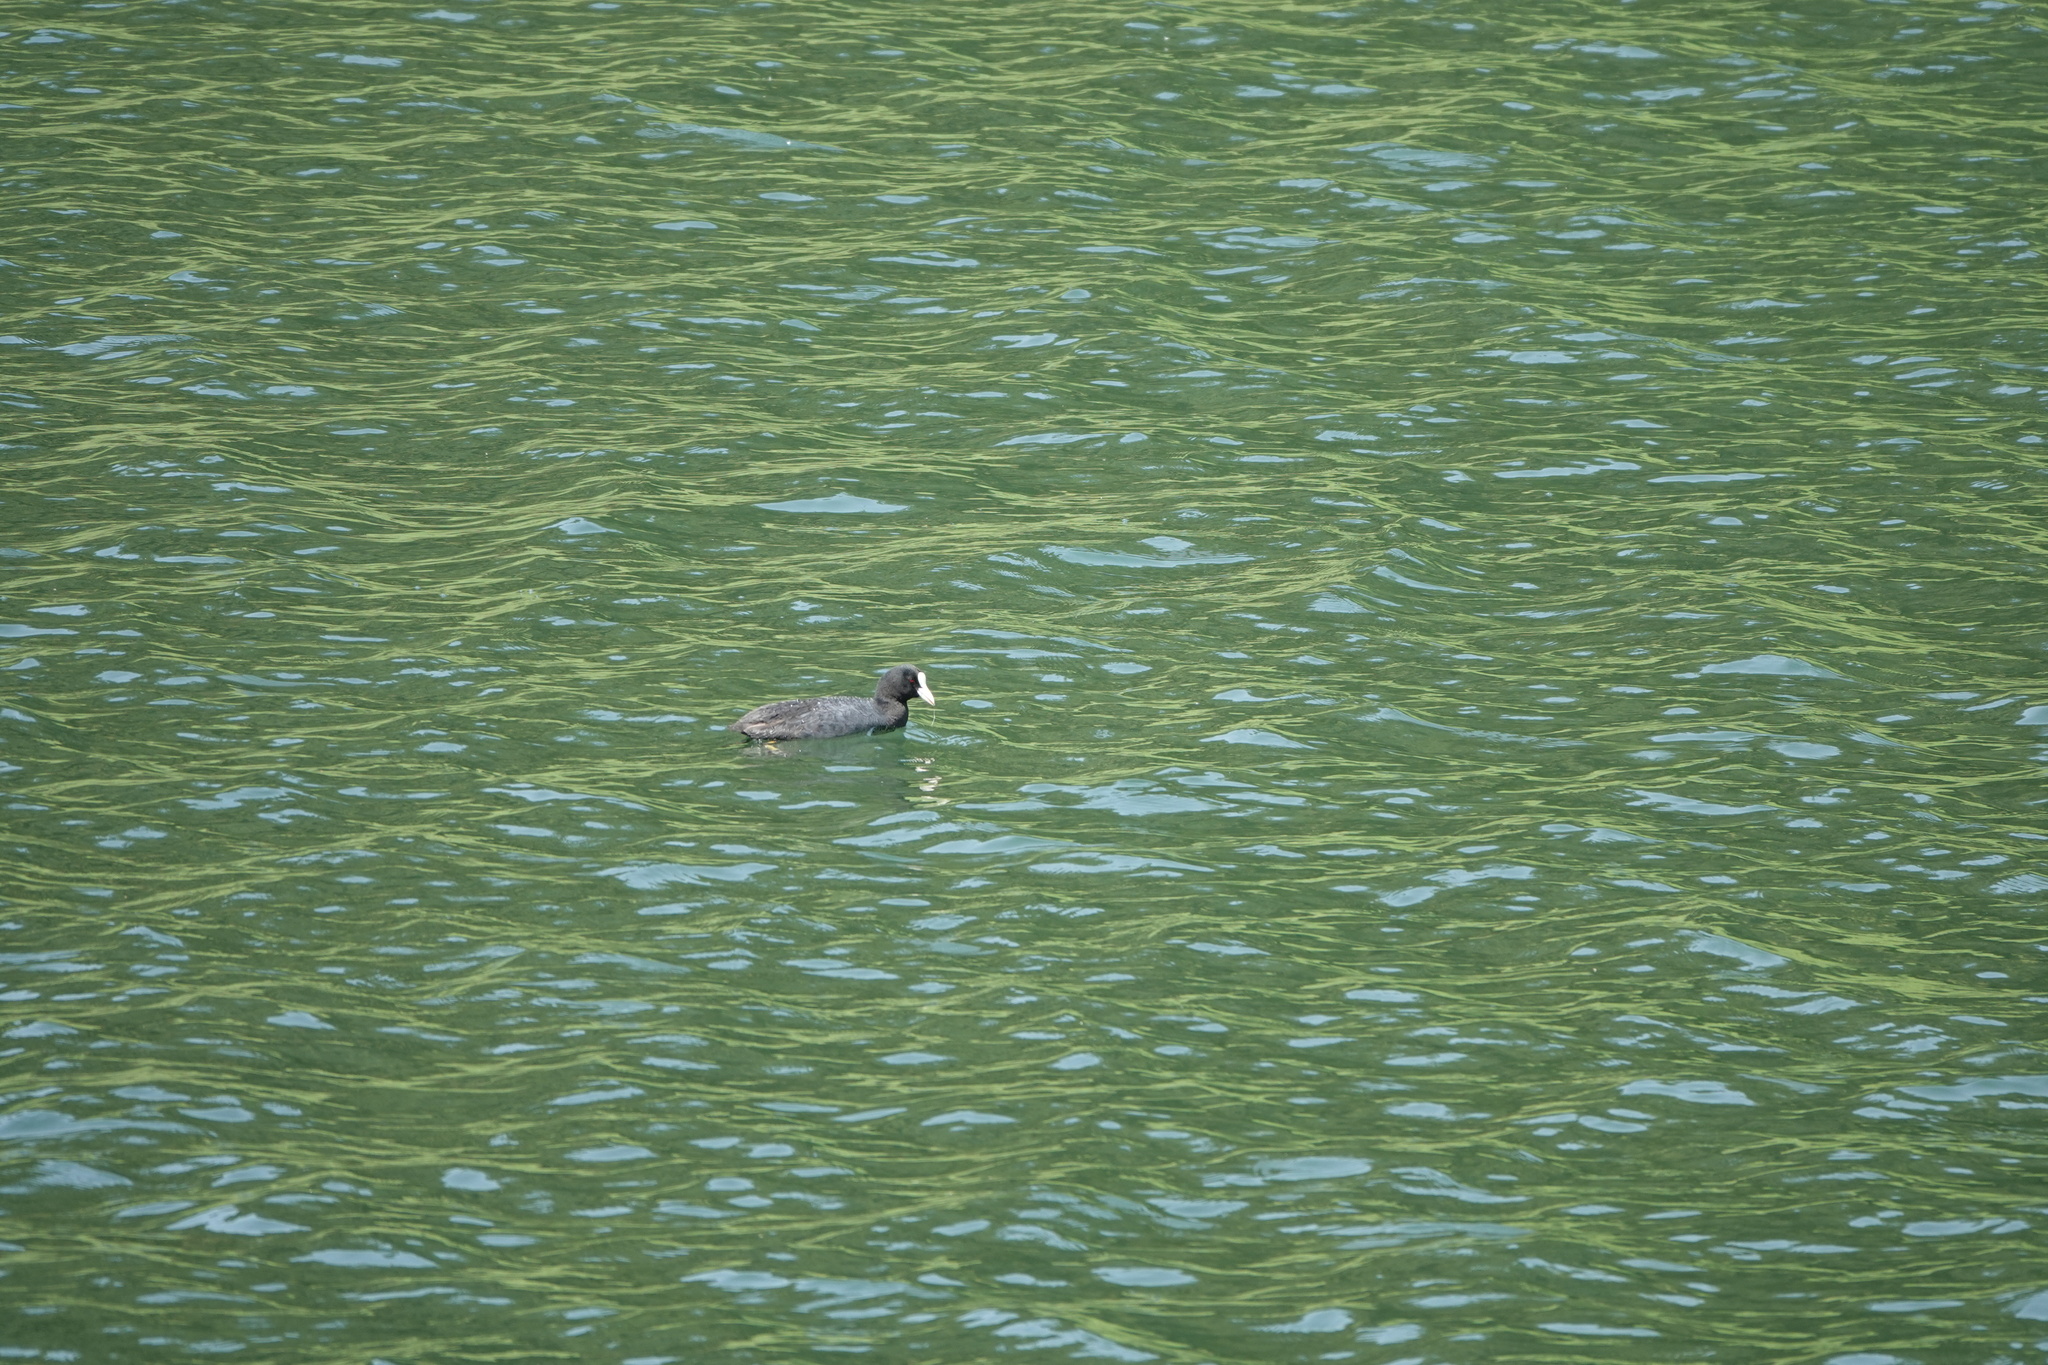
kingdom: Animalia
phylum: Chordata
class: Aves
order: Gruiformes
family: Rallidae
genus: Fulica
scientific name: Fulica atra
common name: Eurasian coot
